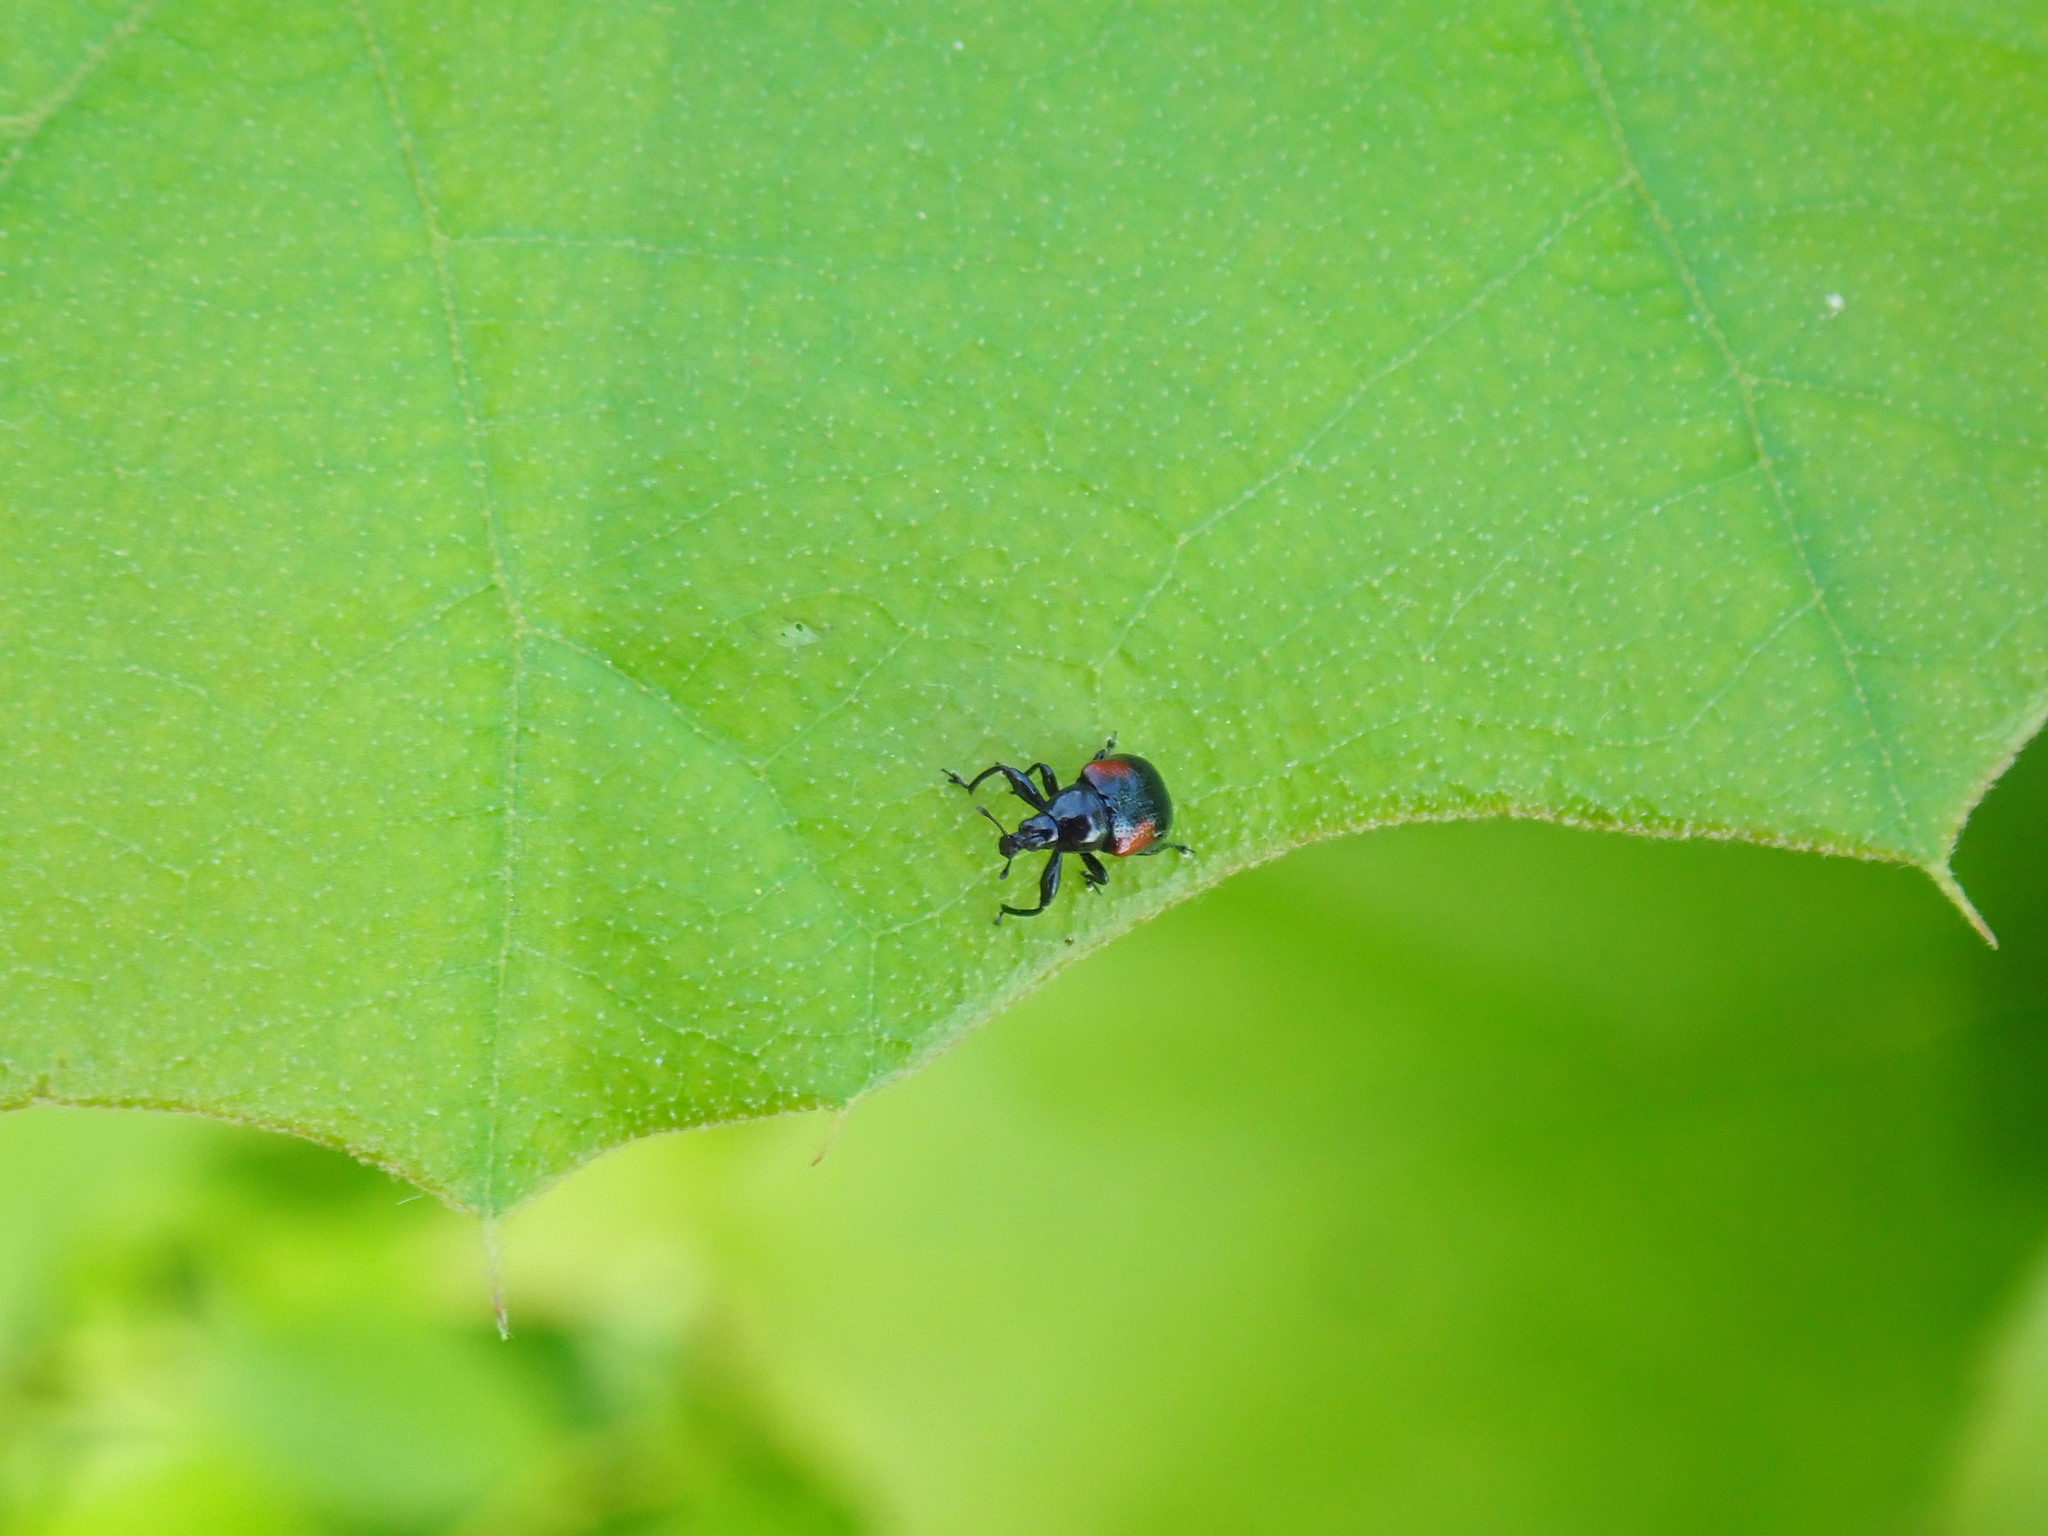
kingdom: Animalia
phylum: Arthropoda
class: Insecta
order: Coleoptera
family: Attelabidae
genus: Attelabus
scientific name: Attelabus bipustulatus
